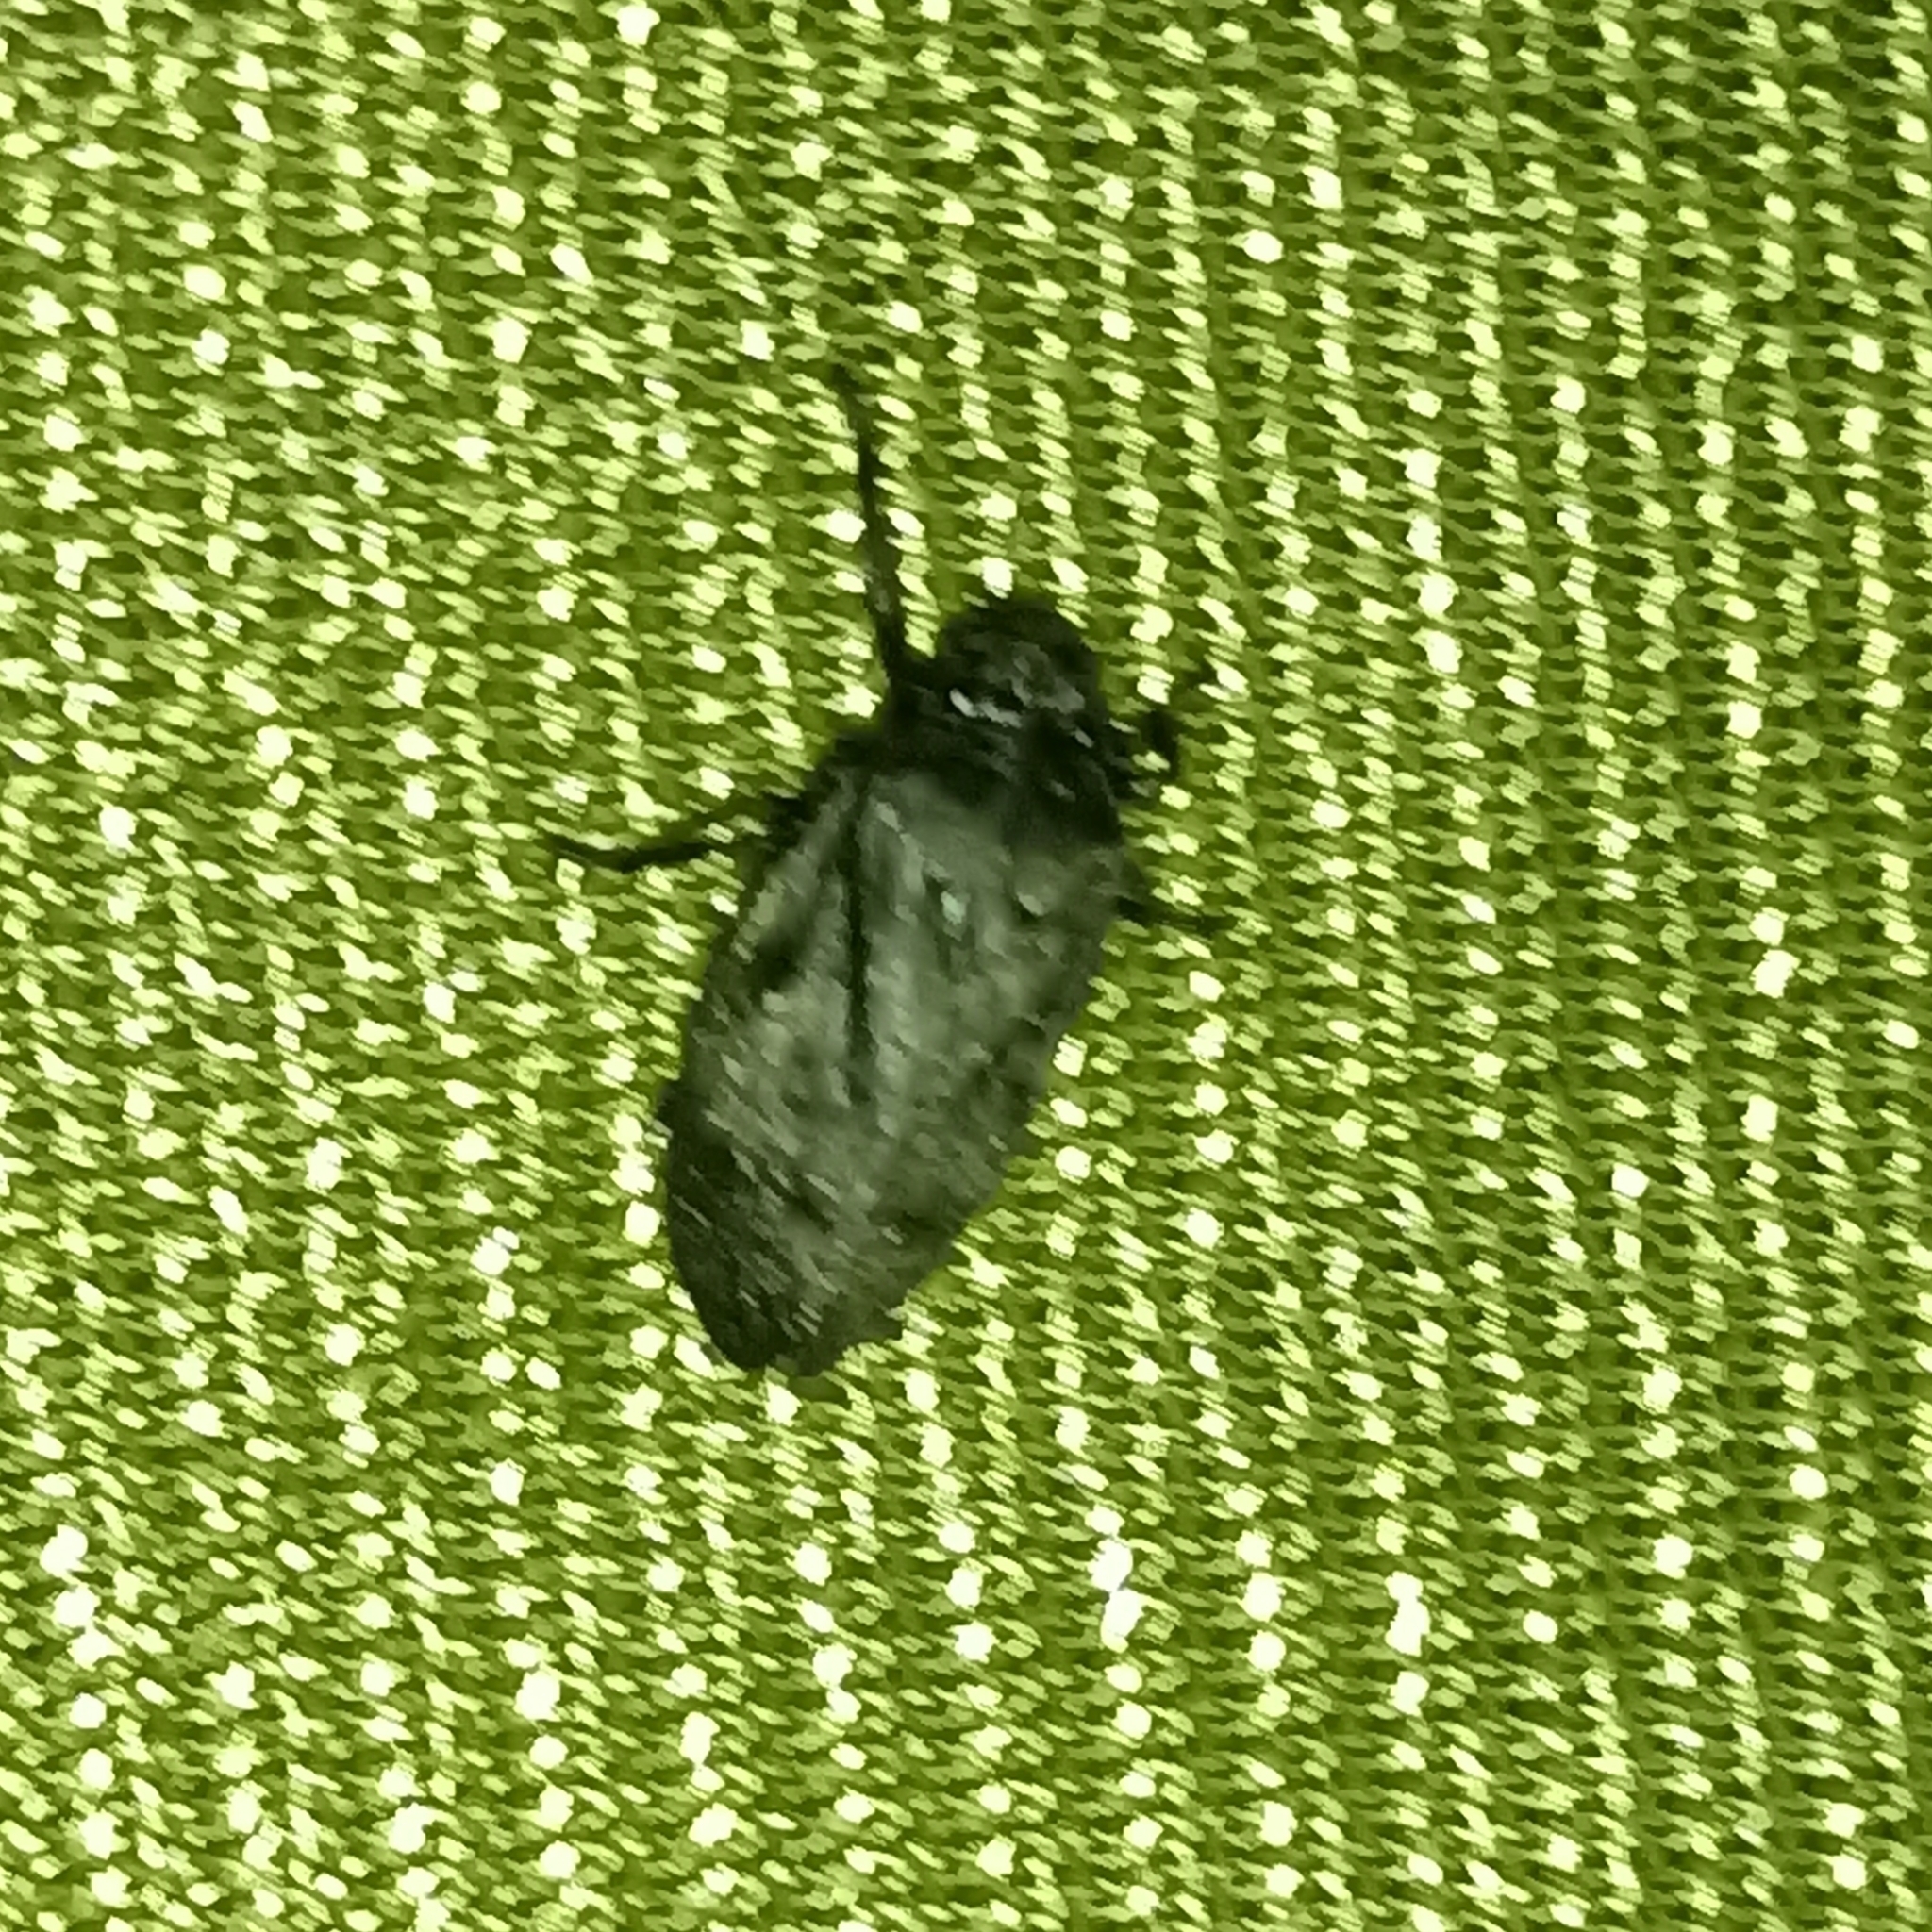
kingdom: Animalia
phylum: Arthropoda
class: Insecta
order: Hemiptera
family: Cercopidae
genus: Zulia
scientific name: Zulia pubescens
